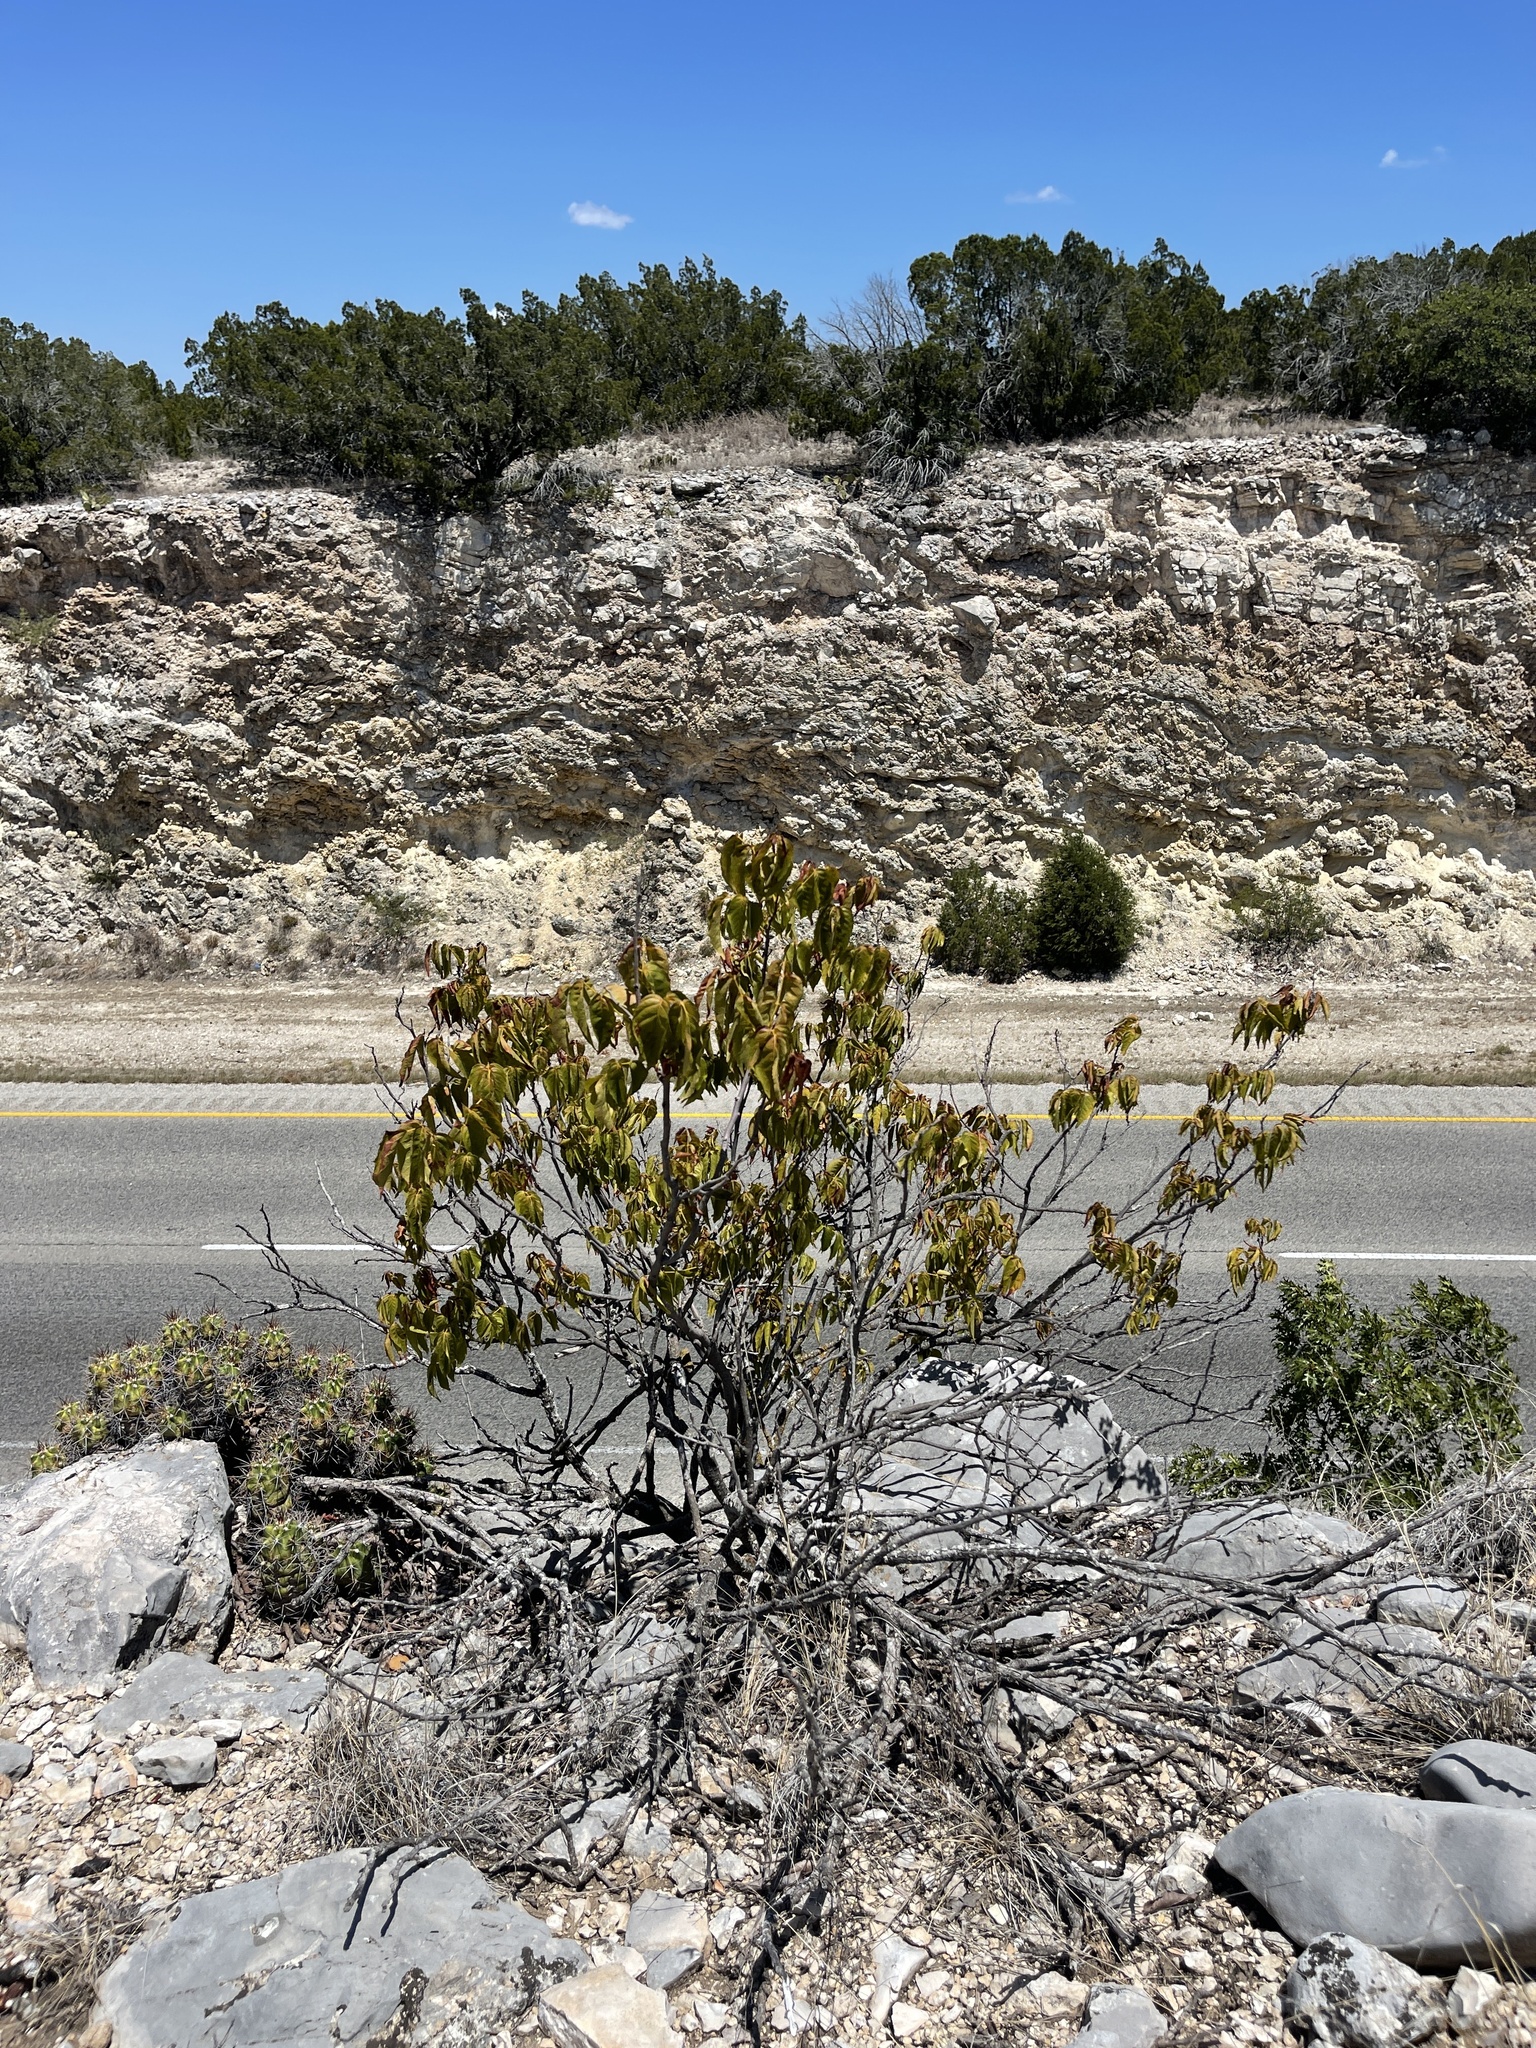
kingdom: Plantae
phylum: Tracheophyta
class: Magnoliopsida
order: Sapindales
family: Sapindaceae
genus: Ungnadia
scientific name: Ungnadia speciosa
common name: Texas-buckeye
